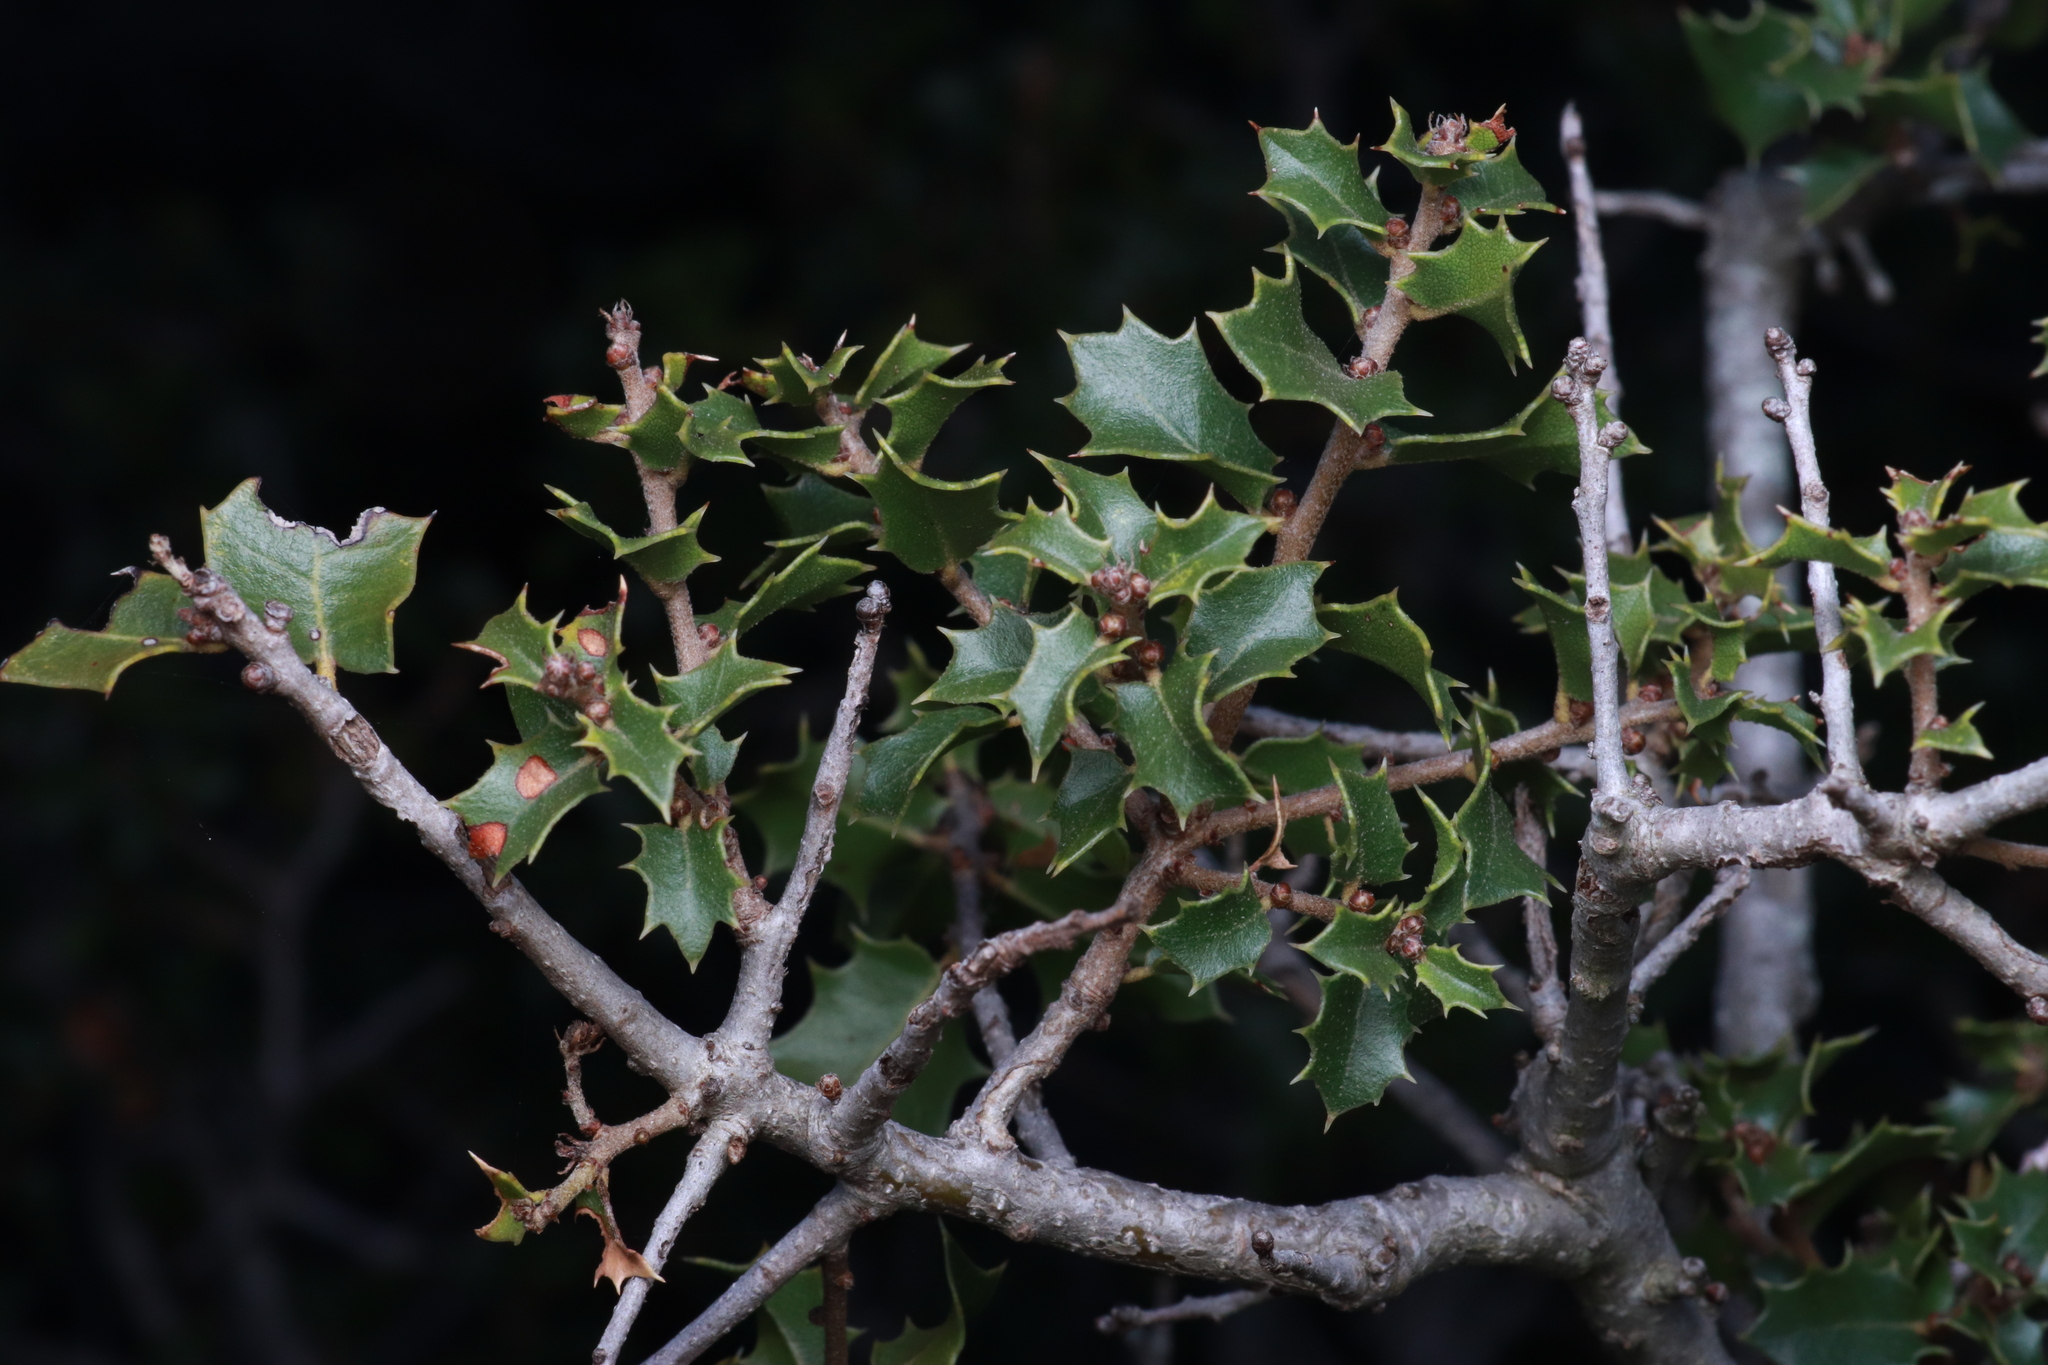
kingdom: Plantae
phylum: Tracheophyta
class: Magnoliopsida
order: Fagales
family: Fagaceae
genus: Quercus
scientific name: Quercus coccifera
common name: Kermes oak
